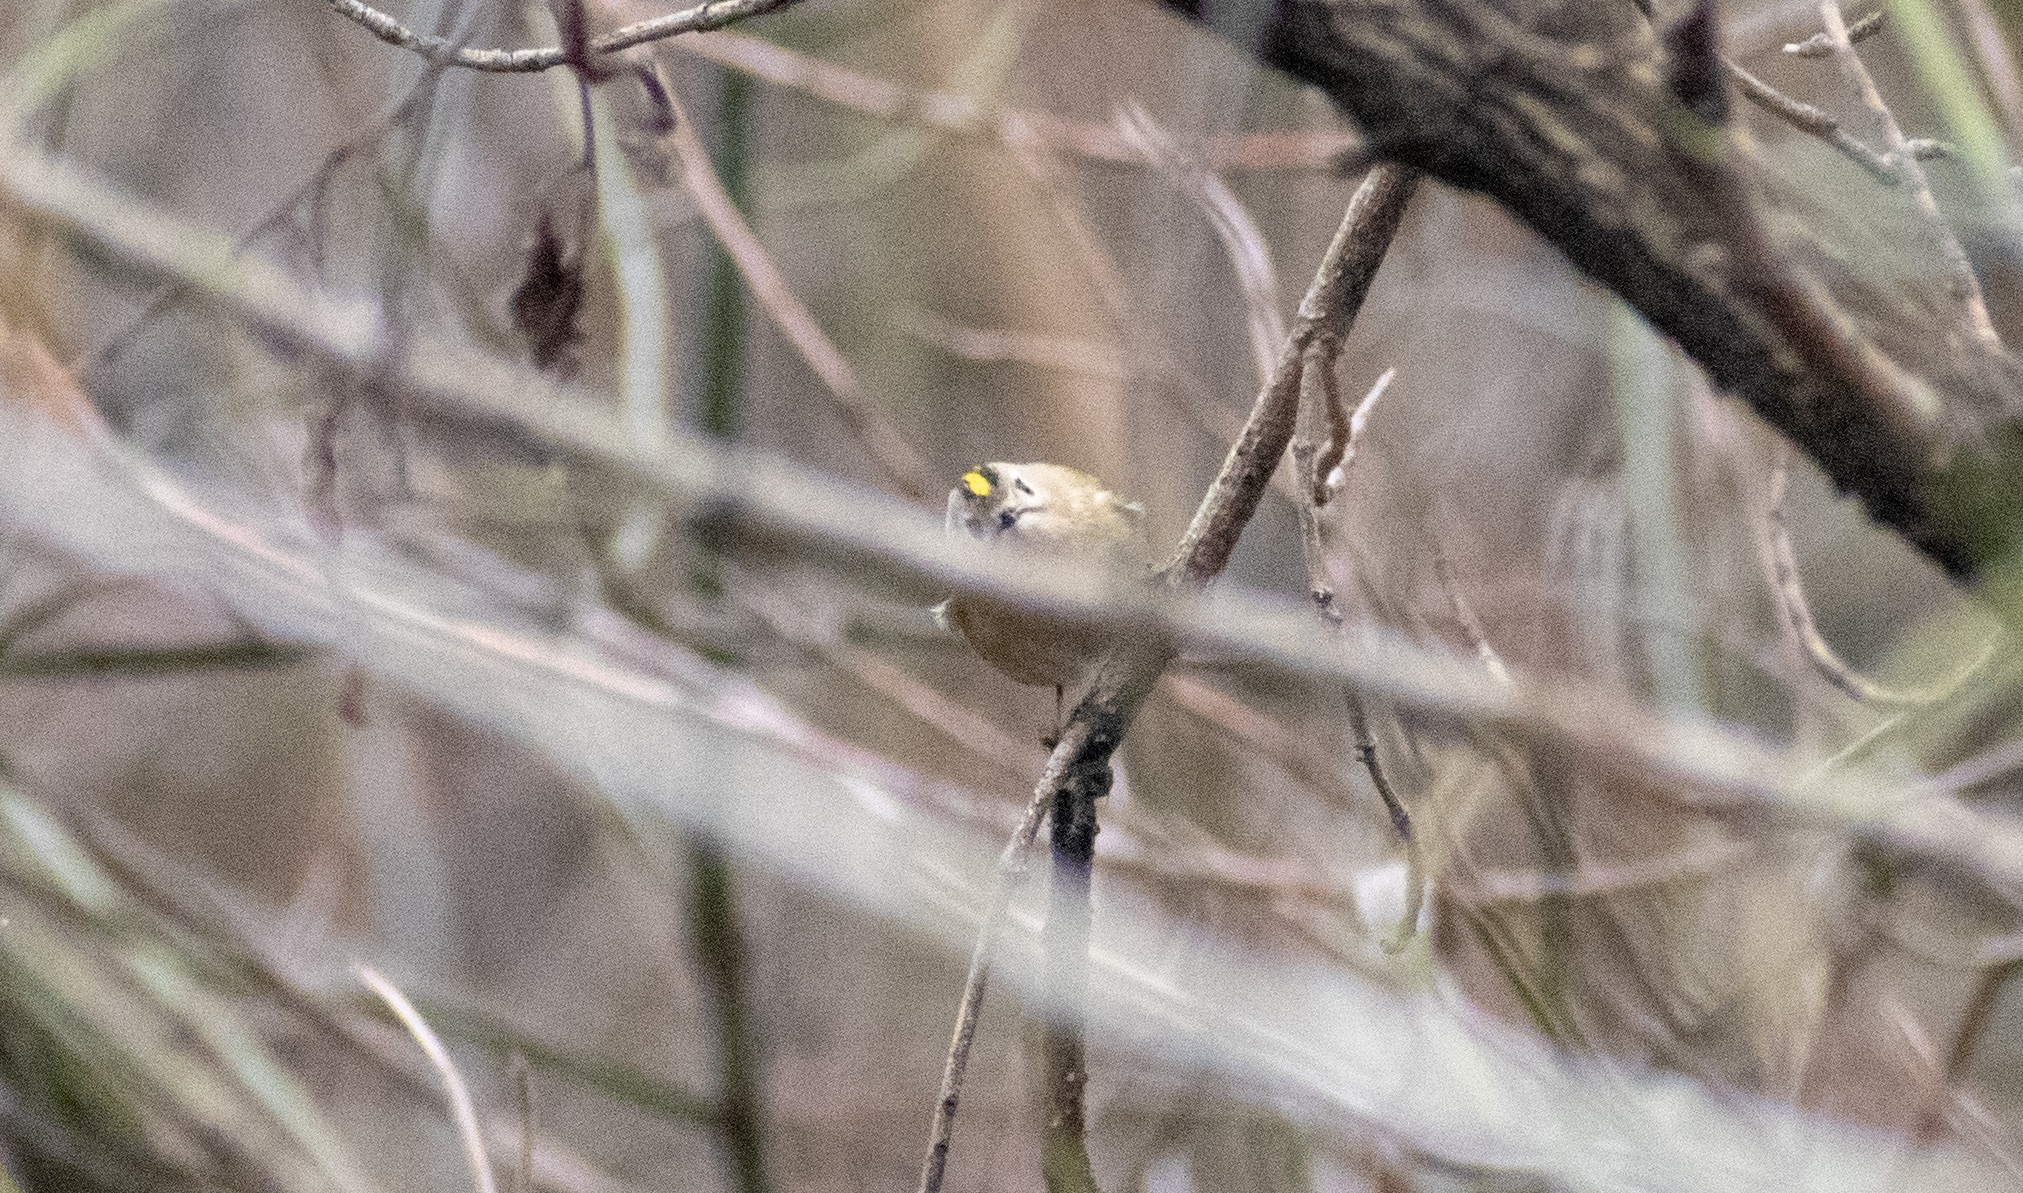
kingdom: Animalia
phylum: Chordata
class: Aves
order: Passeriformes
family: Regulidae
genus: Regulus
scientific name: Regulus regulus
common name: Goldcrest
